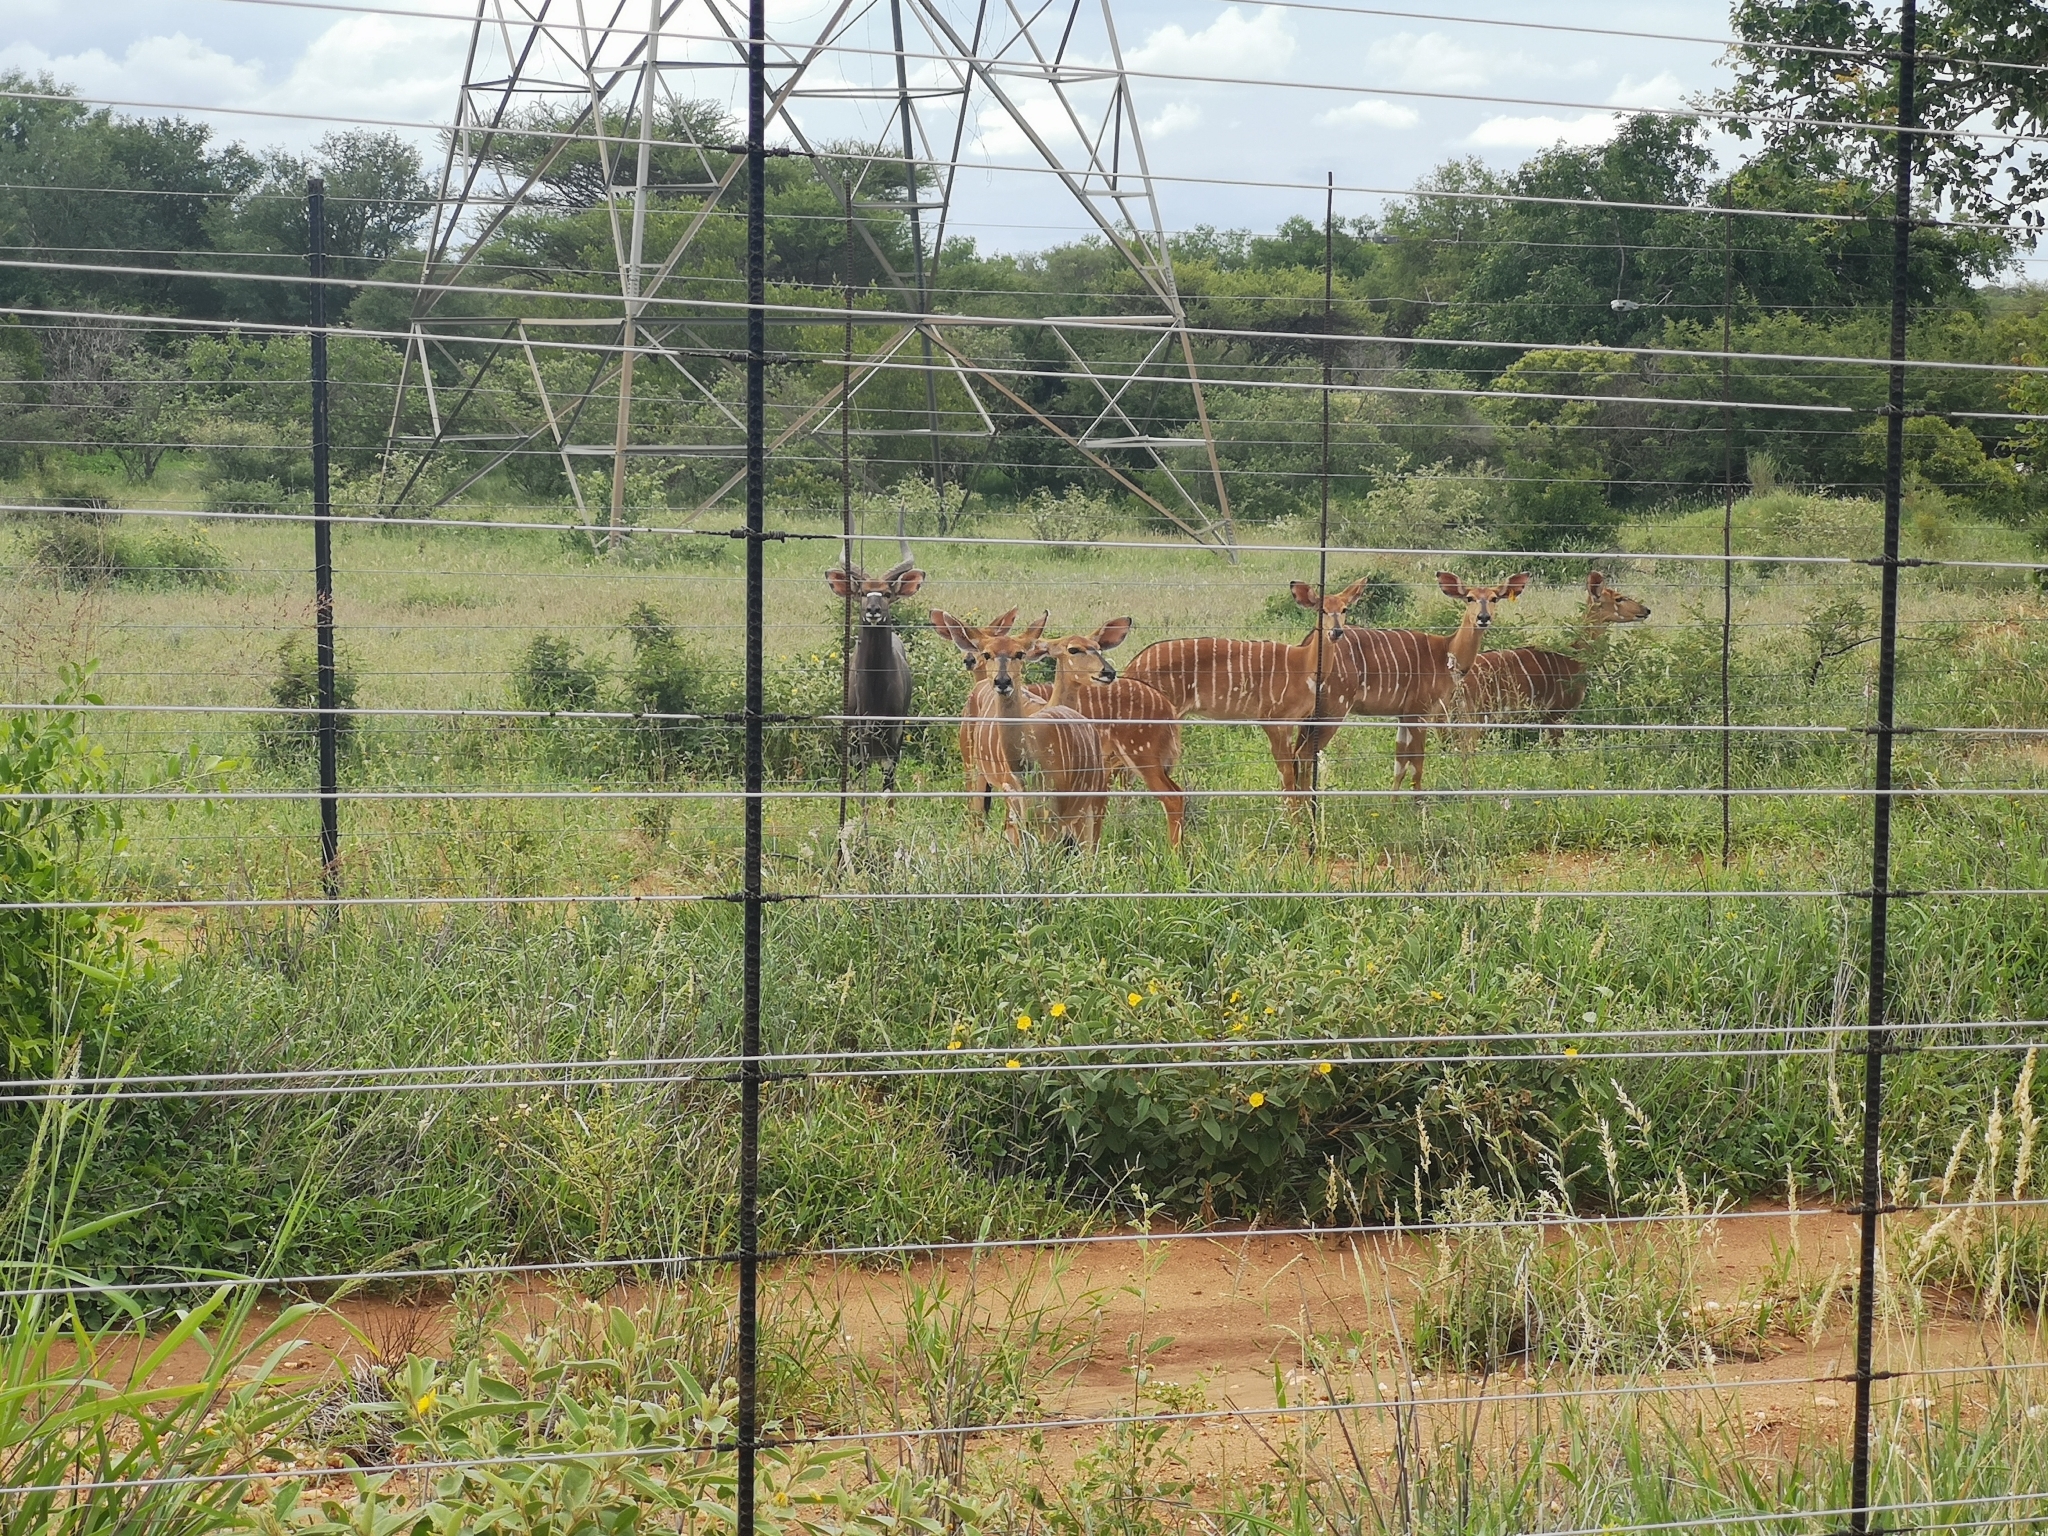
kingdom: Animalia
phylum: Chordata
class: Mammalia
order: Artiodactyla
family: Bovidae
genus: Tragelaphus
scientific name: Tragelaphus angasii
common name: Nyala
